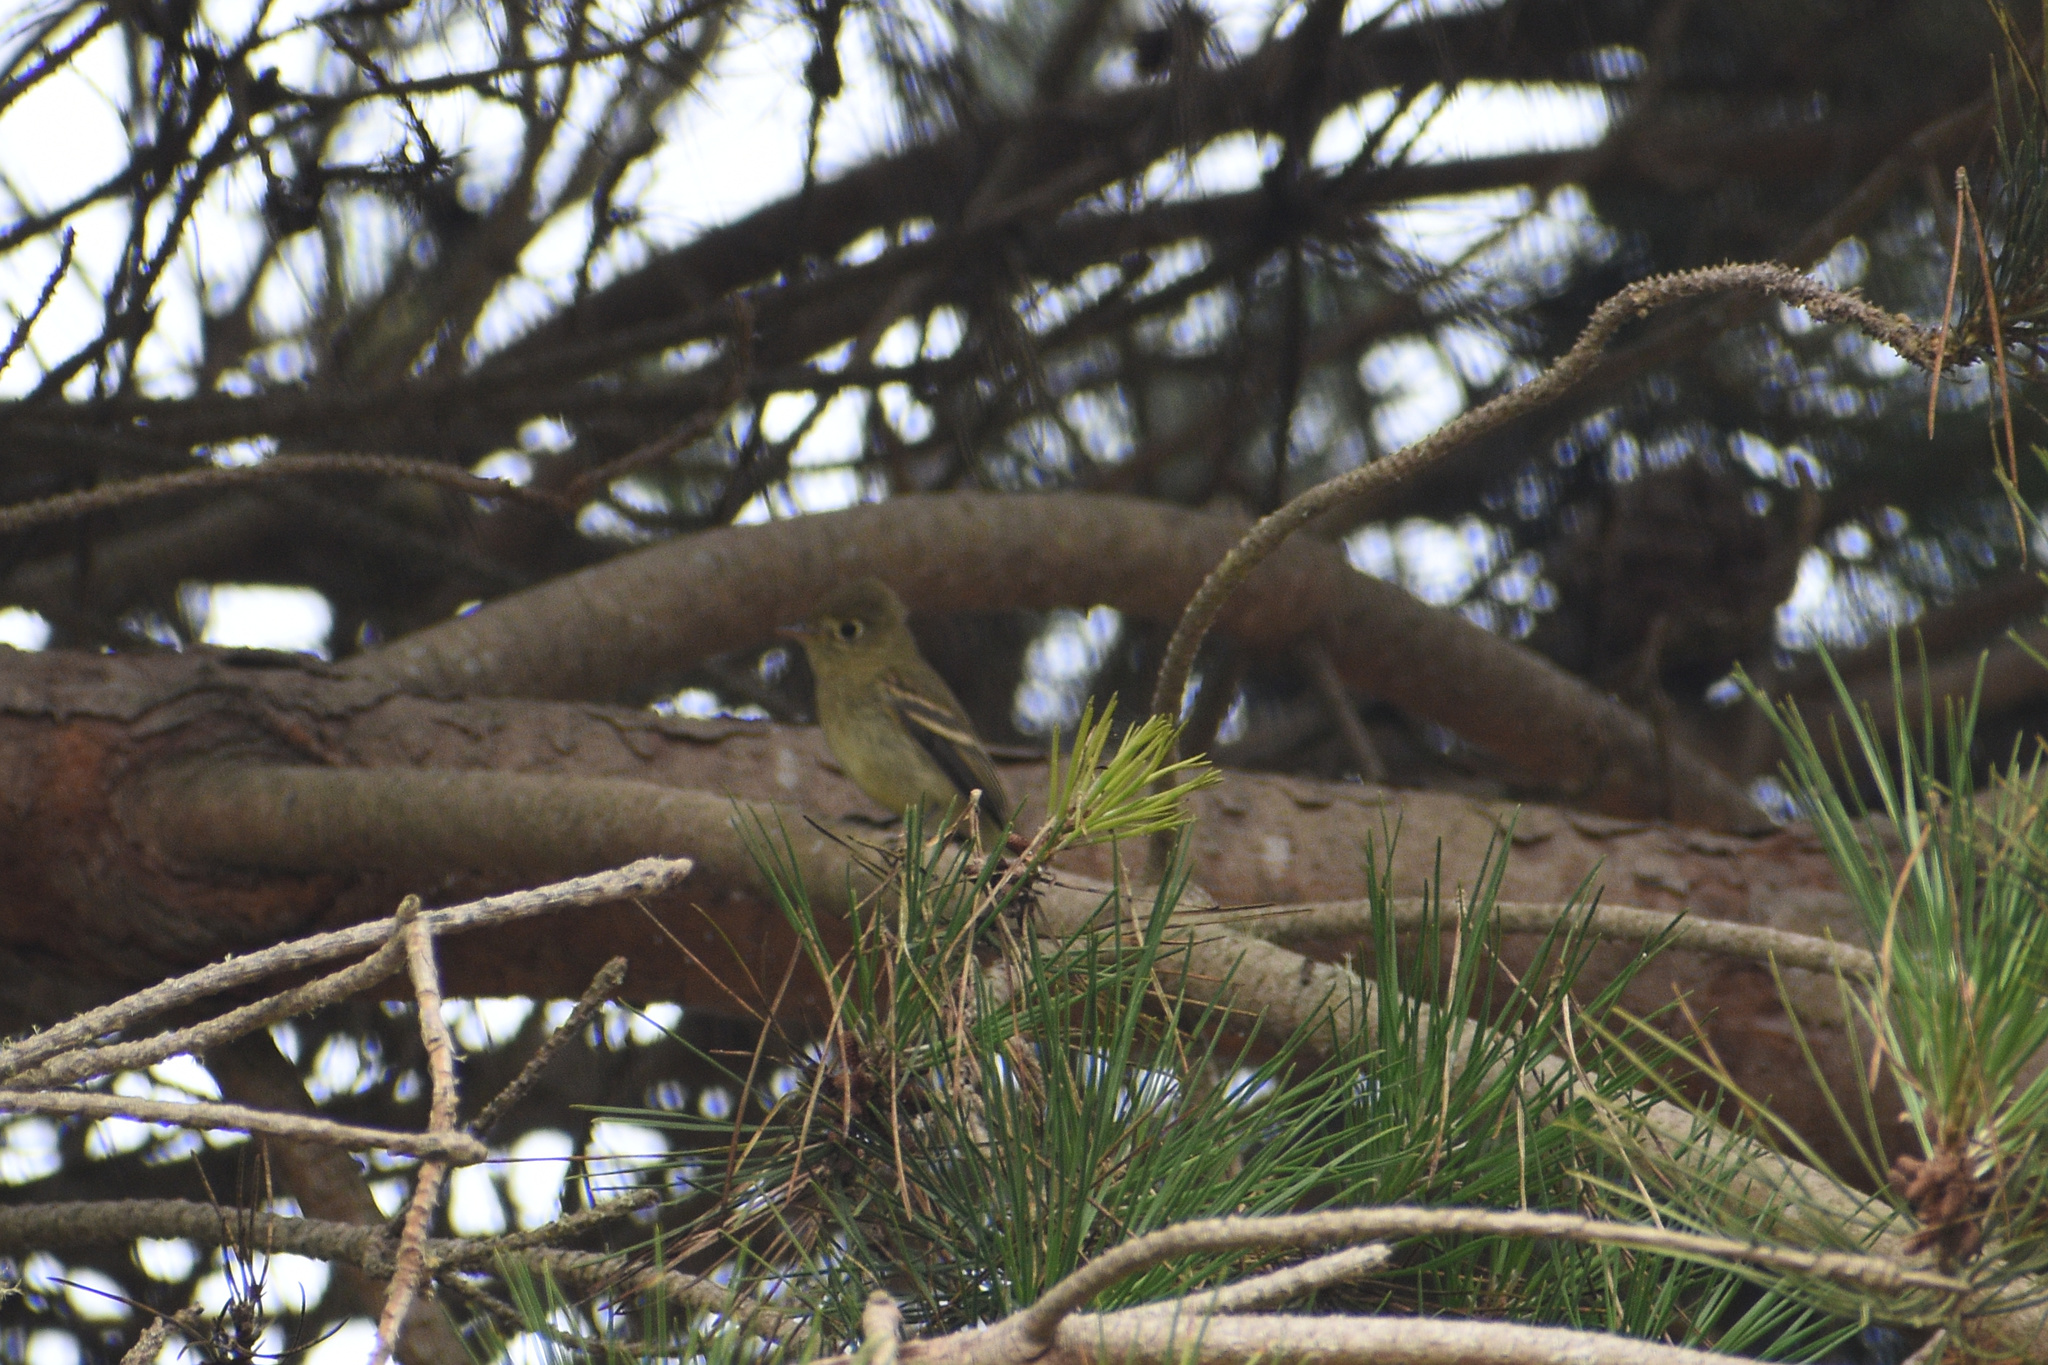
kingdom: Animalia
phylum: Chordata
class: Aves
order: Passeriformes
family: Tyrannidae
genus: Empidonax
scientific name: Empidonax difficilis
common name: Pacific-slope flycatcher
